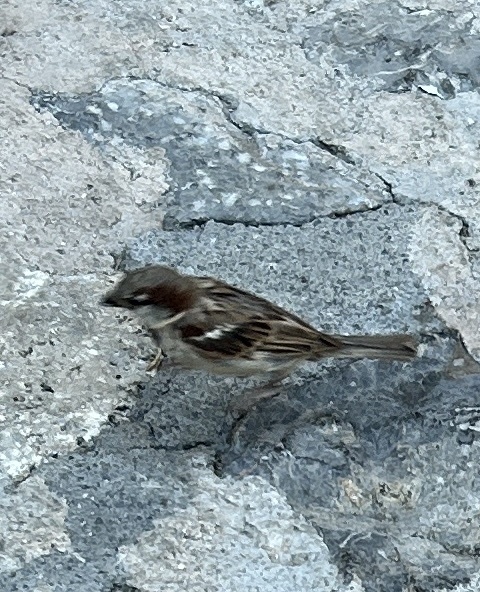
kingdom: Animalia
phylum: Chordata
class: Aves
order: Passeriformes
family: Passeridae
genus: Passer
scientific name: Passer domesticus
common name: House sparrow
